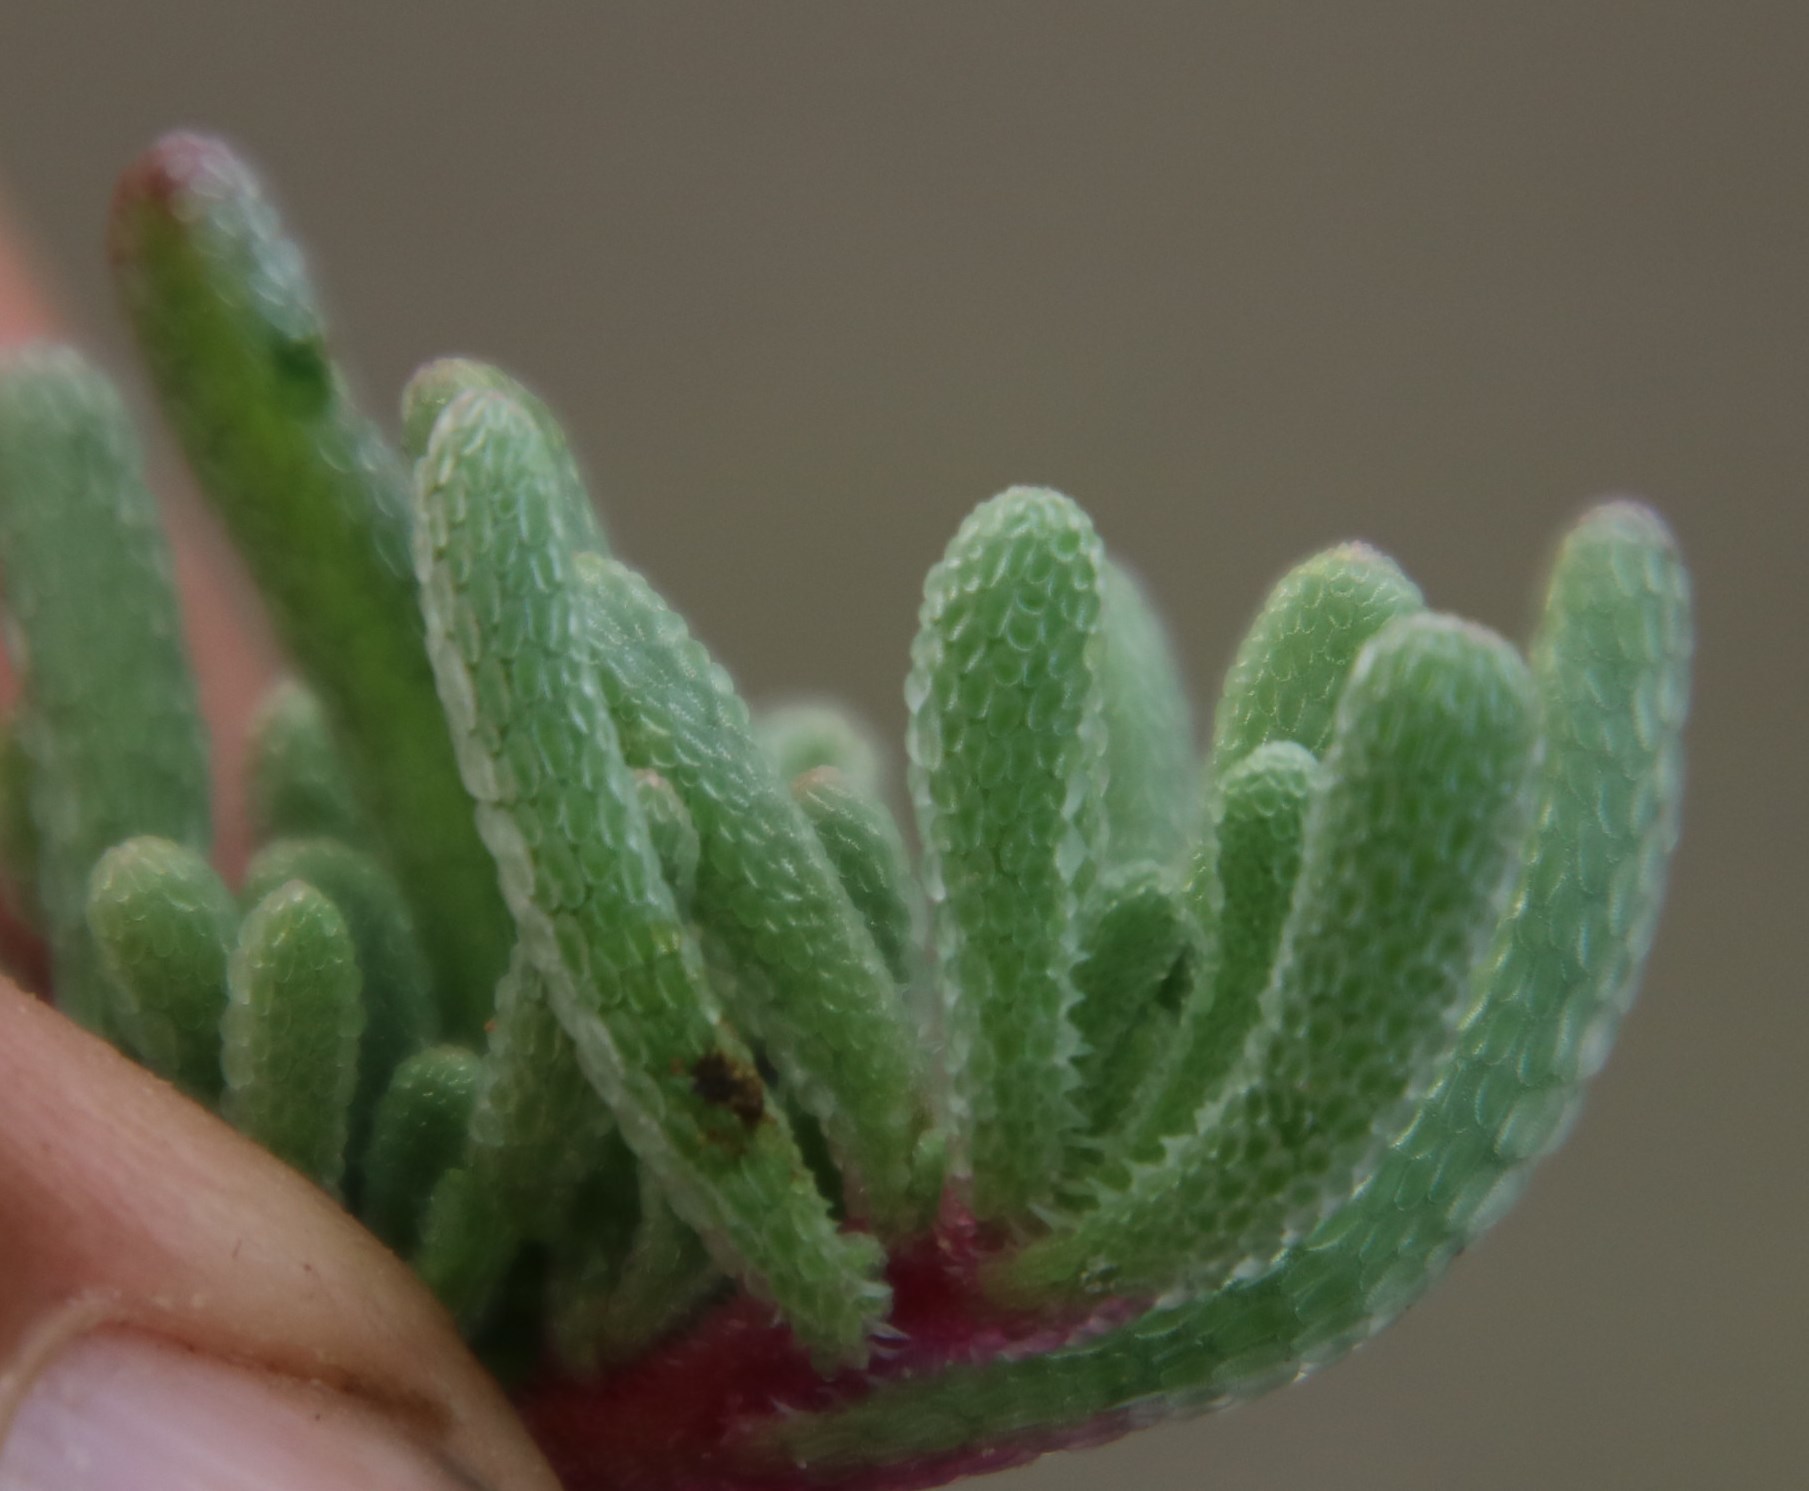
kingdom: Plantae
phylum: Tracheophyta
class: Magnoliopsida
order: Caryophyllales
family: Aizoaceae
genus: Mesembryanthemum
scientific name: Mesembryanthemum nodiflorum
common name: Slenderleaf iceplant
